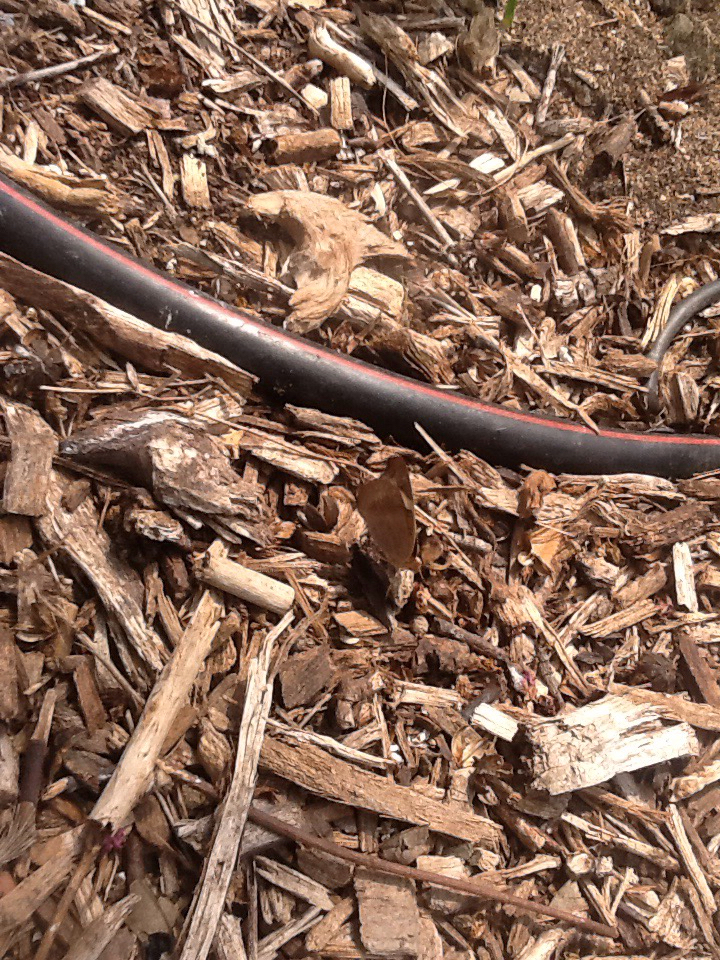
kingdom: Animalia
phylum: Arthropoda
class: Insecta
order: Lepidoptera
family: Nymphalidae
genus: Junonia
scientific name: Junonia coenia
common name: Common buckeye
